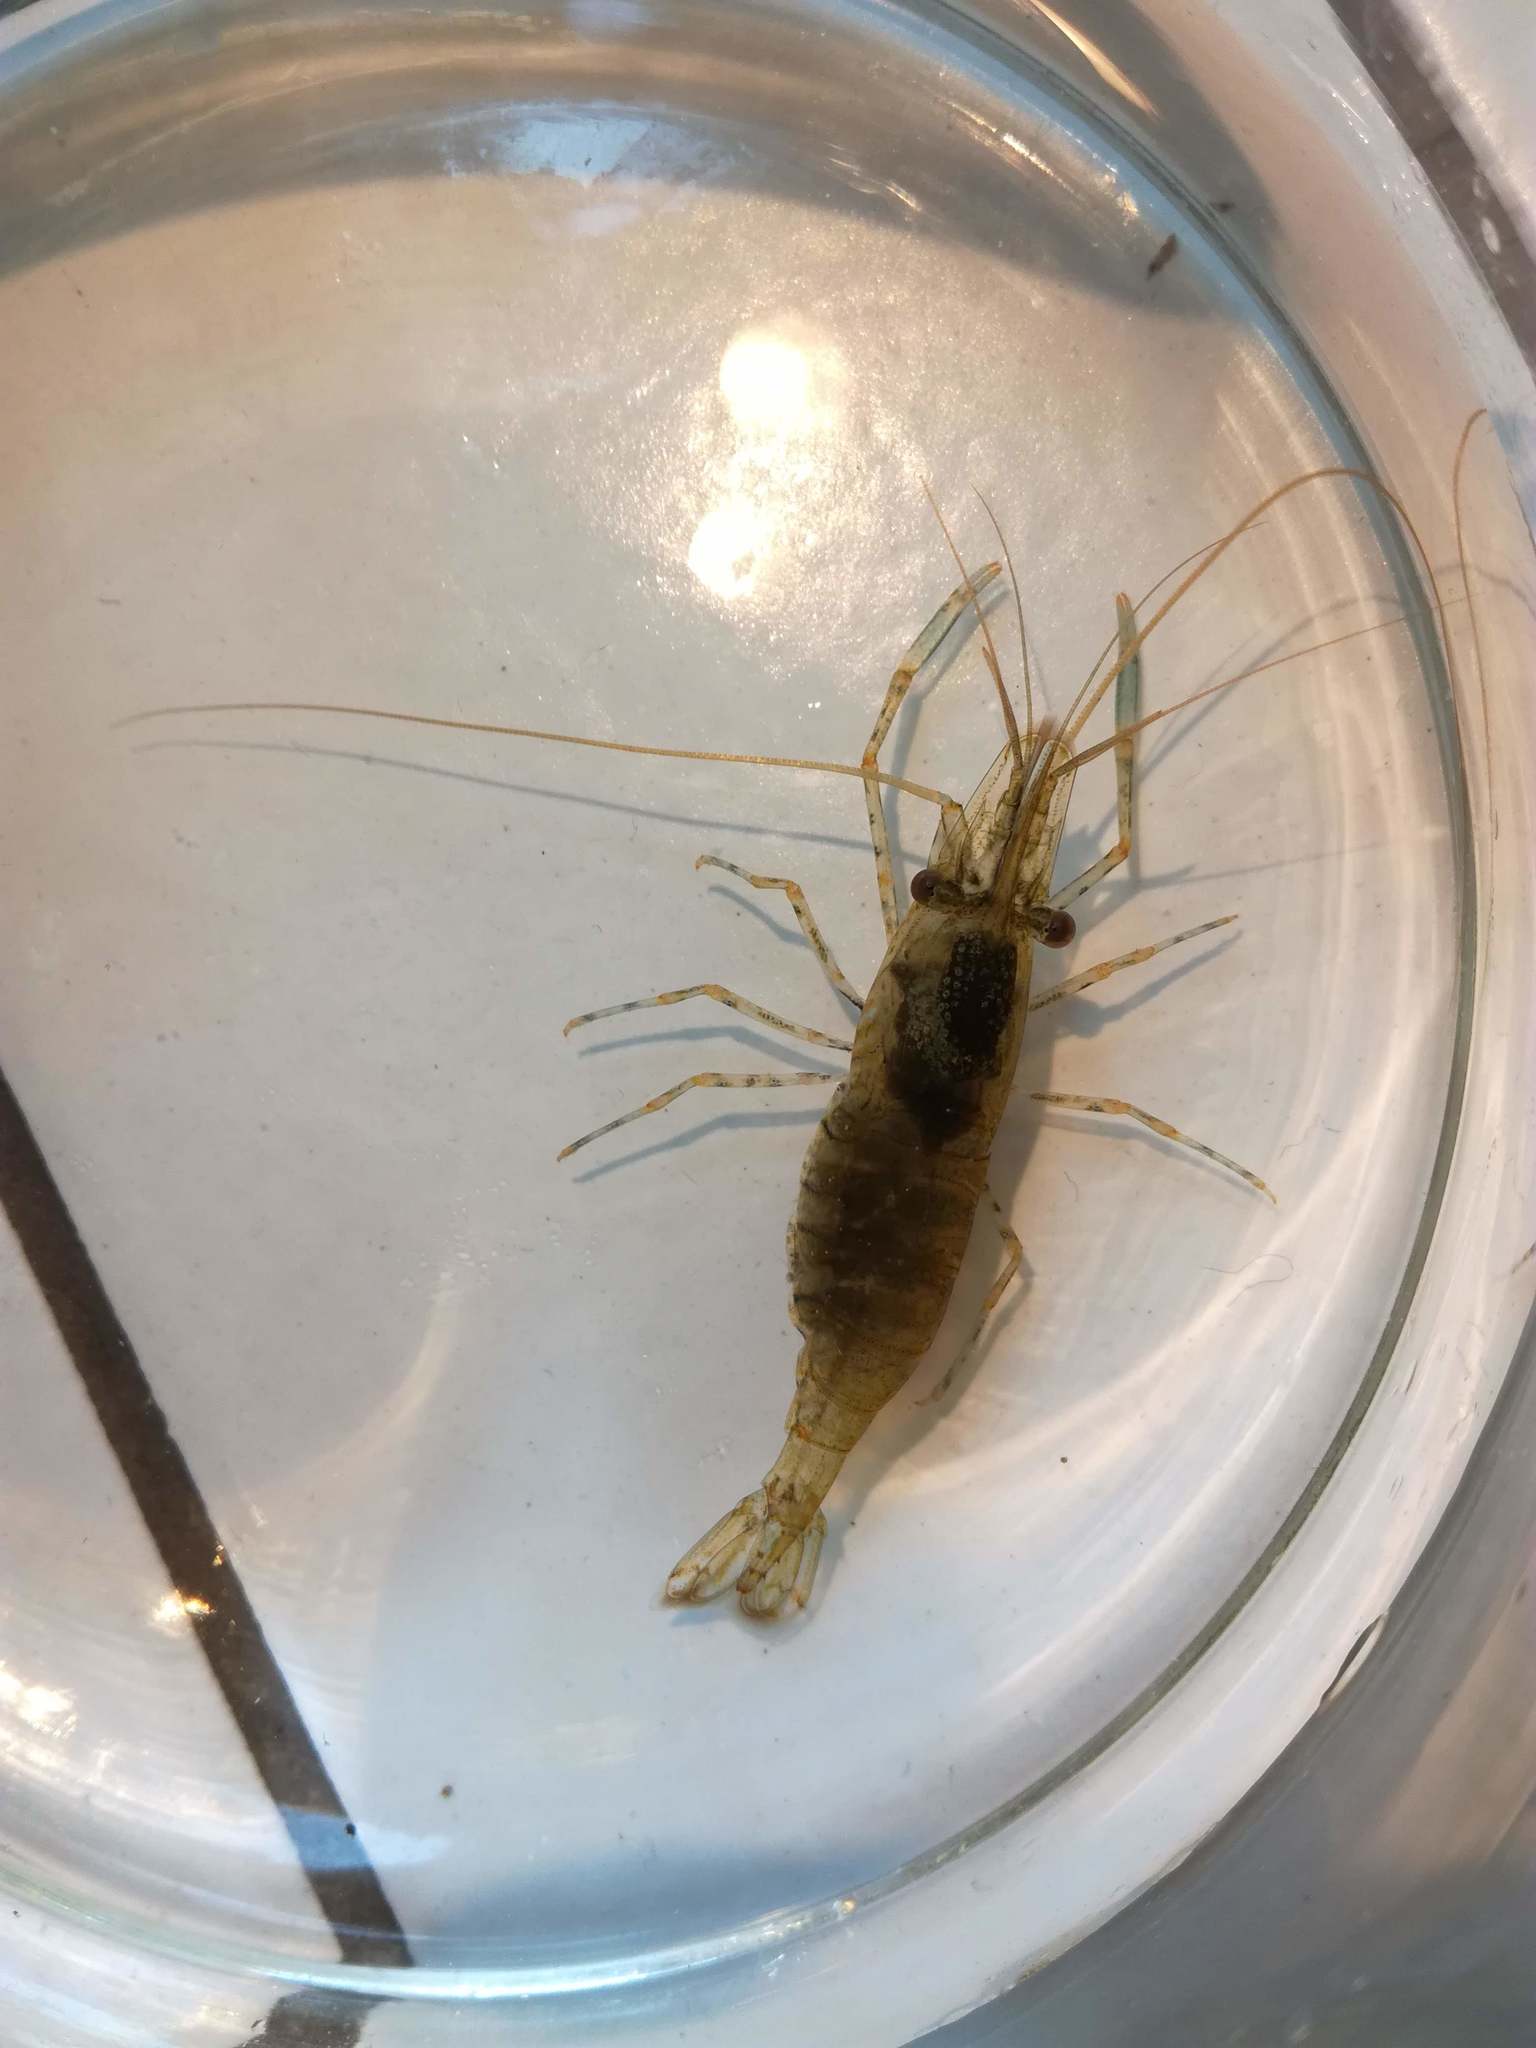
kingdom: Animalia
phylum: Arthropoda
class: Malacostraca
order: Decapoda
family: Palaemonidae
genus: Palaemon
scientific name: Palaemon elegans
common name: Grass prawm
